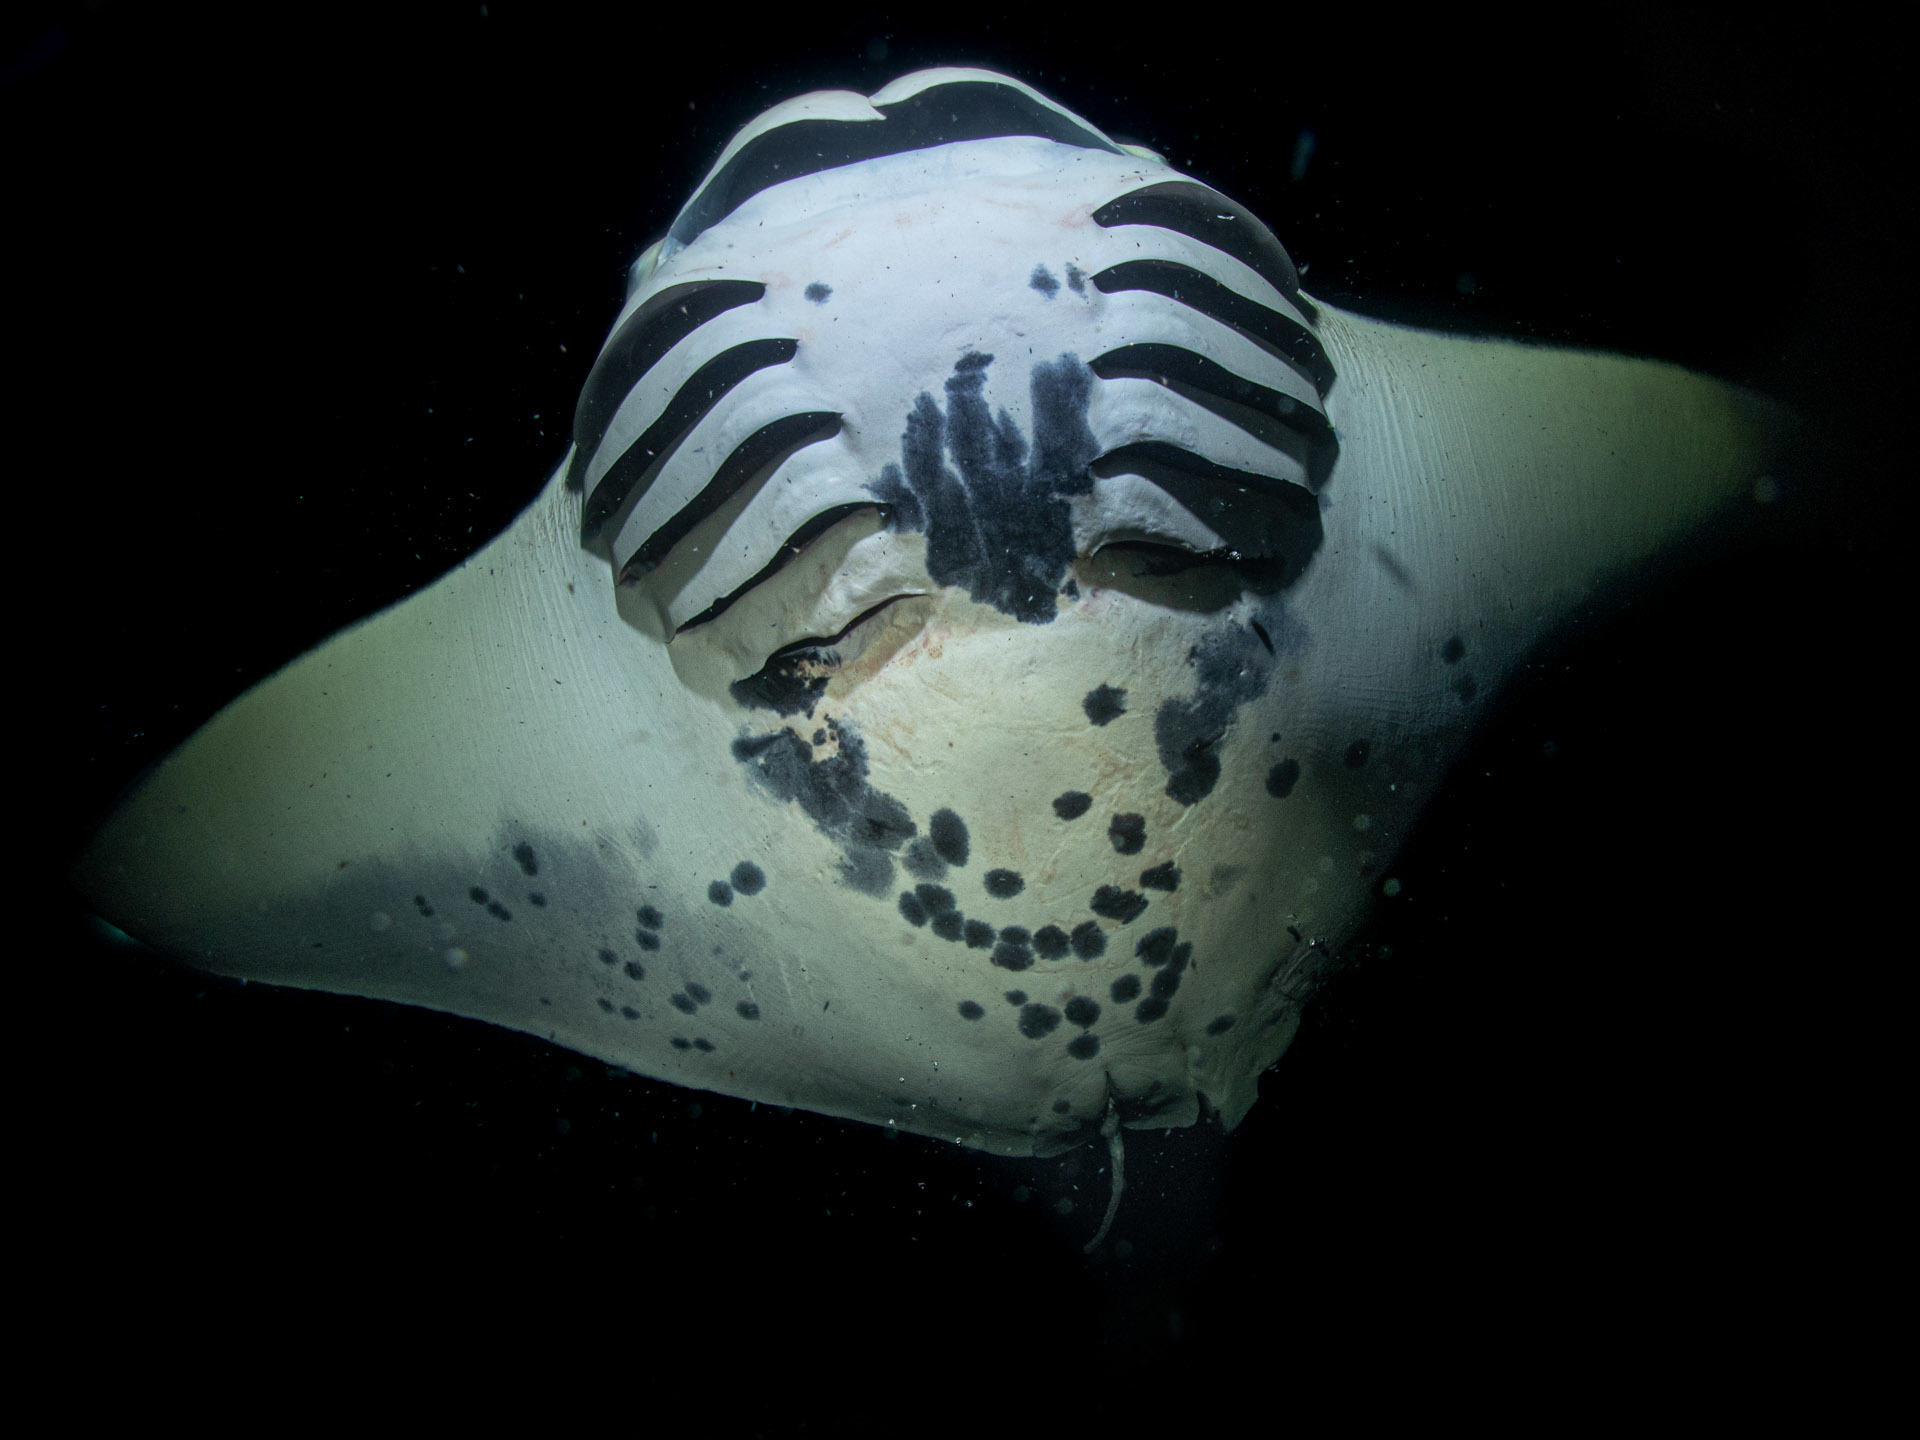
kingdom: Animalia
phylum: Chordata
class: Elasmobranchii
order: Myliobatiformes
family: Myliobatidae
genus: Mobula
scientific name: Mobula alfredi
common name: Reef manta ray
